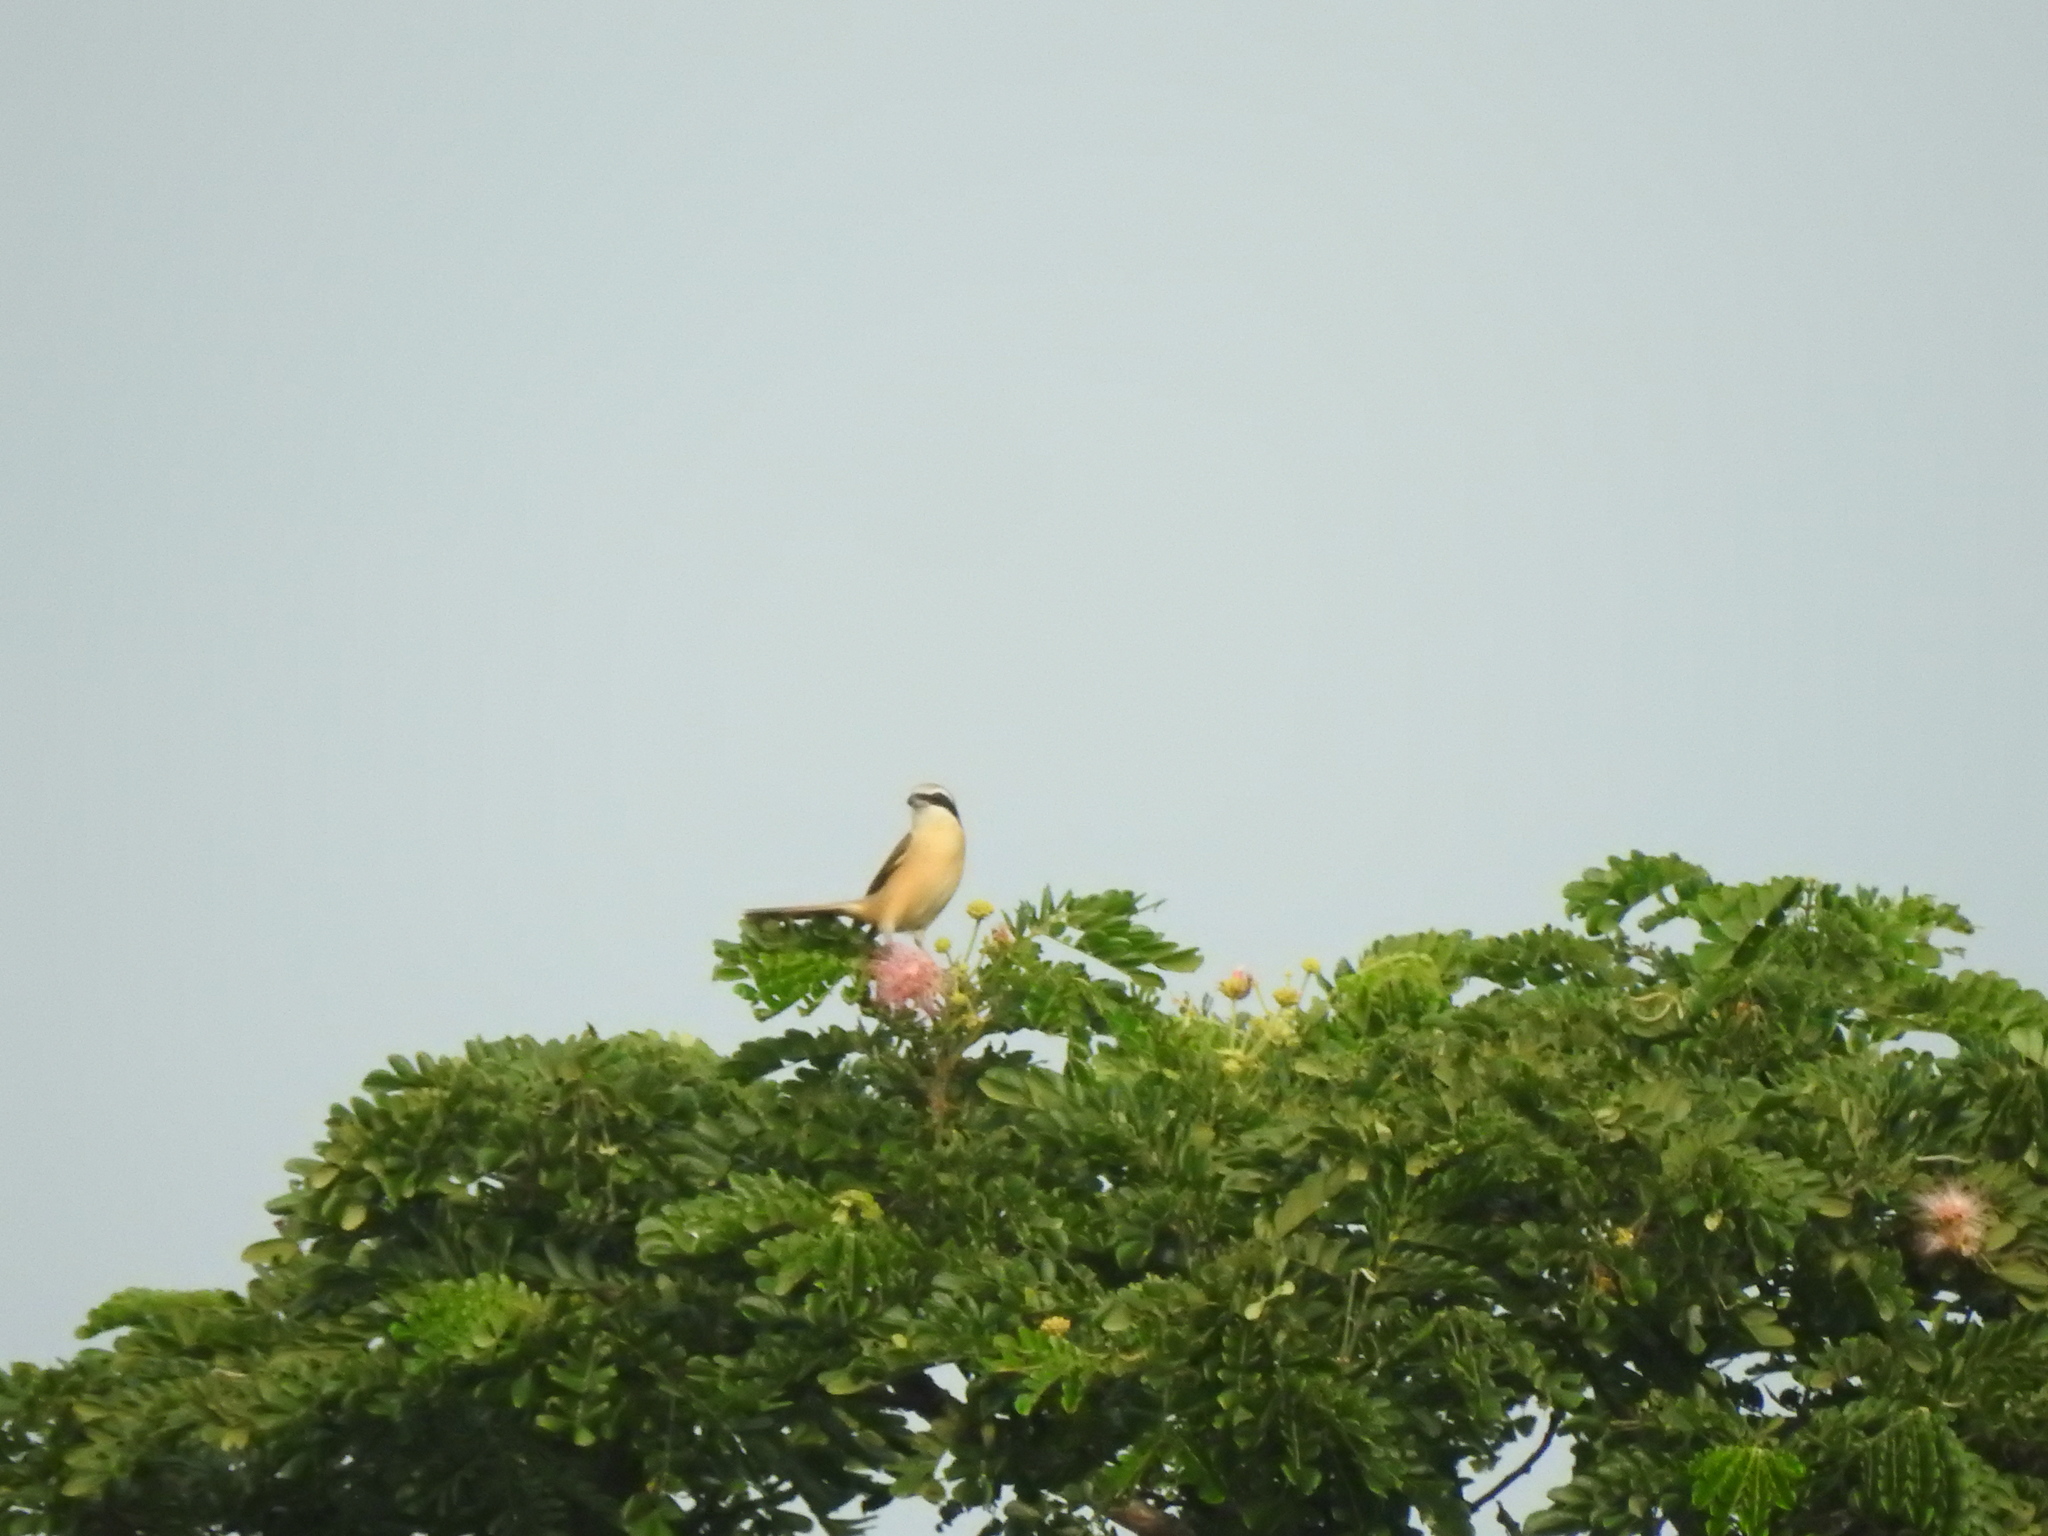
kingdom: Animalia
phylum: Chordata
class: Aves
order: Passeriformes
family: Laniidae
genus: Lanius
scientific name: Lanius cristatus
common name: Brown shrike
